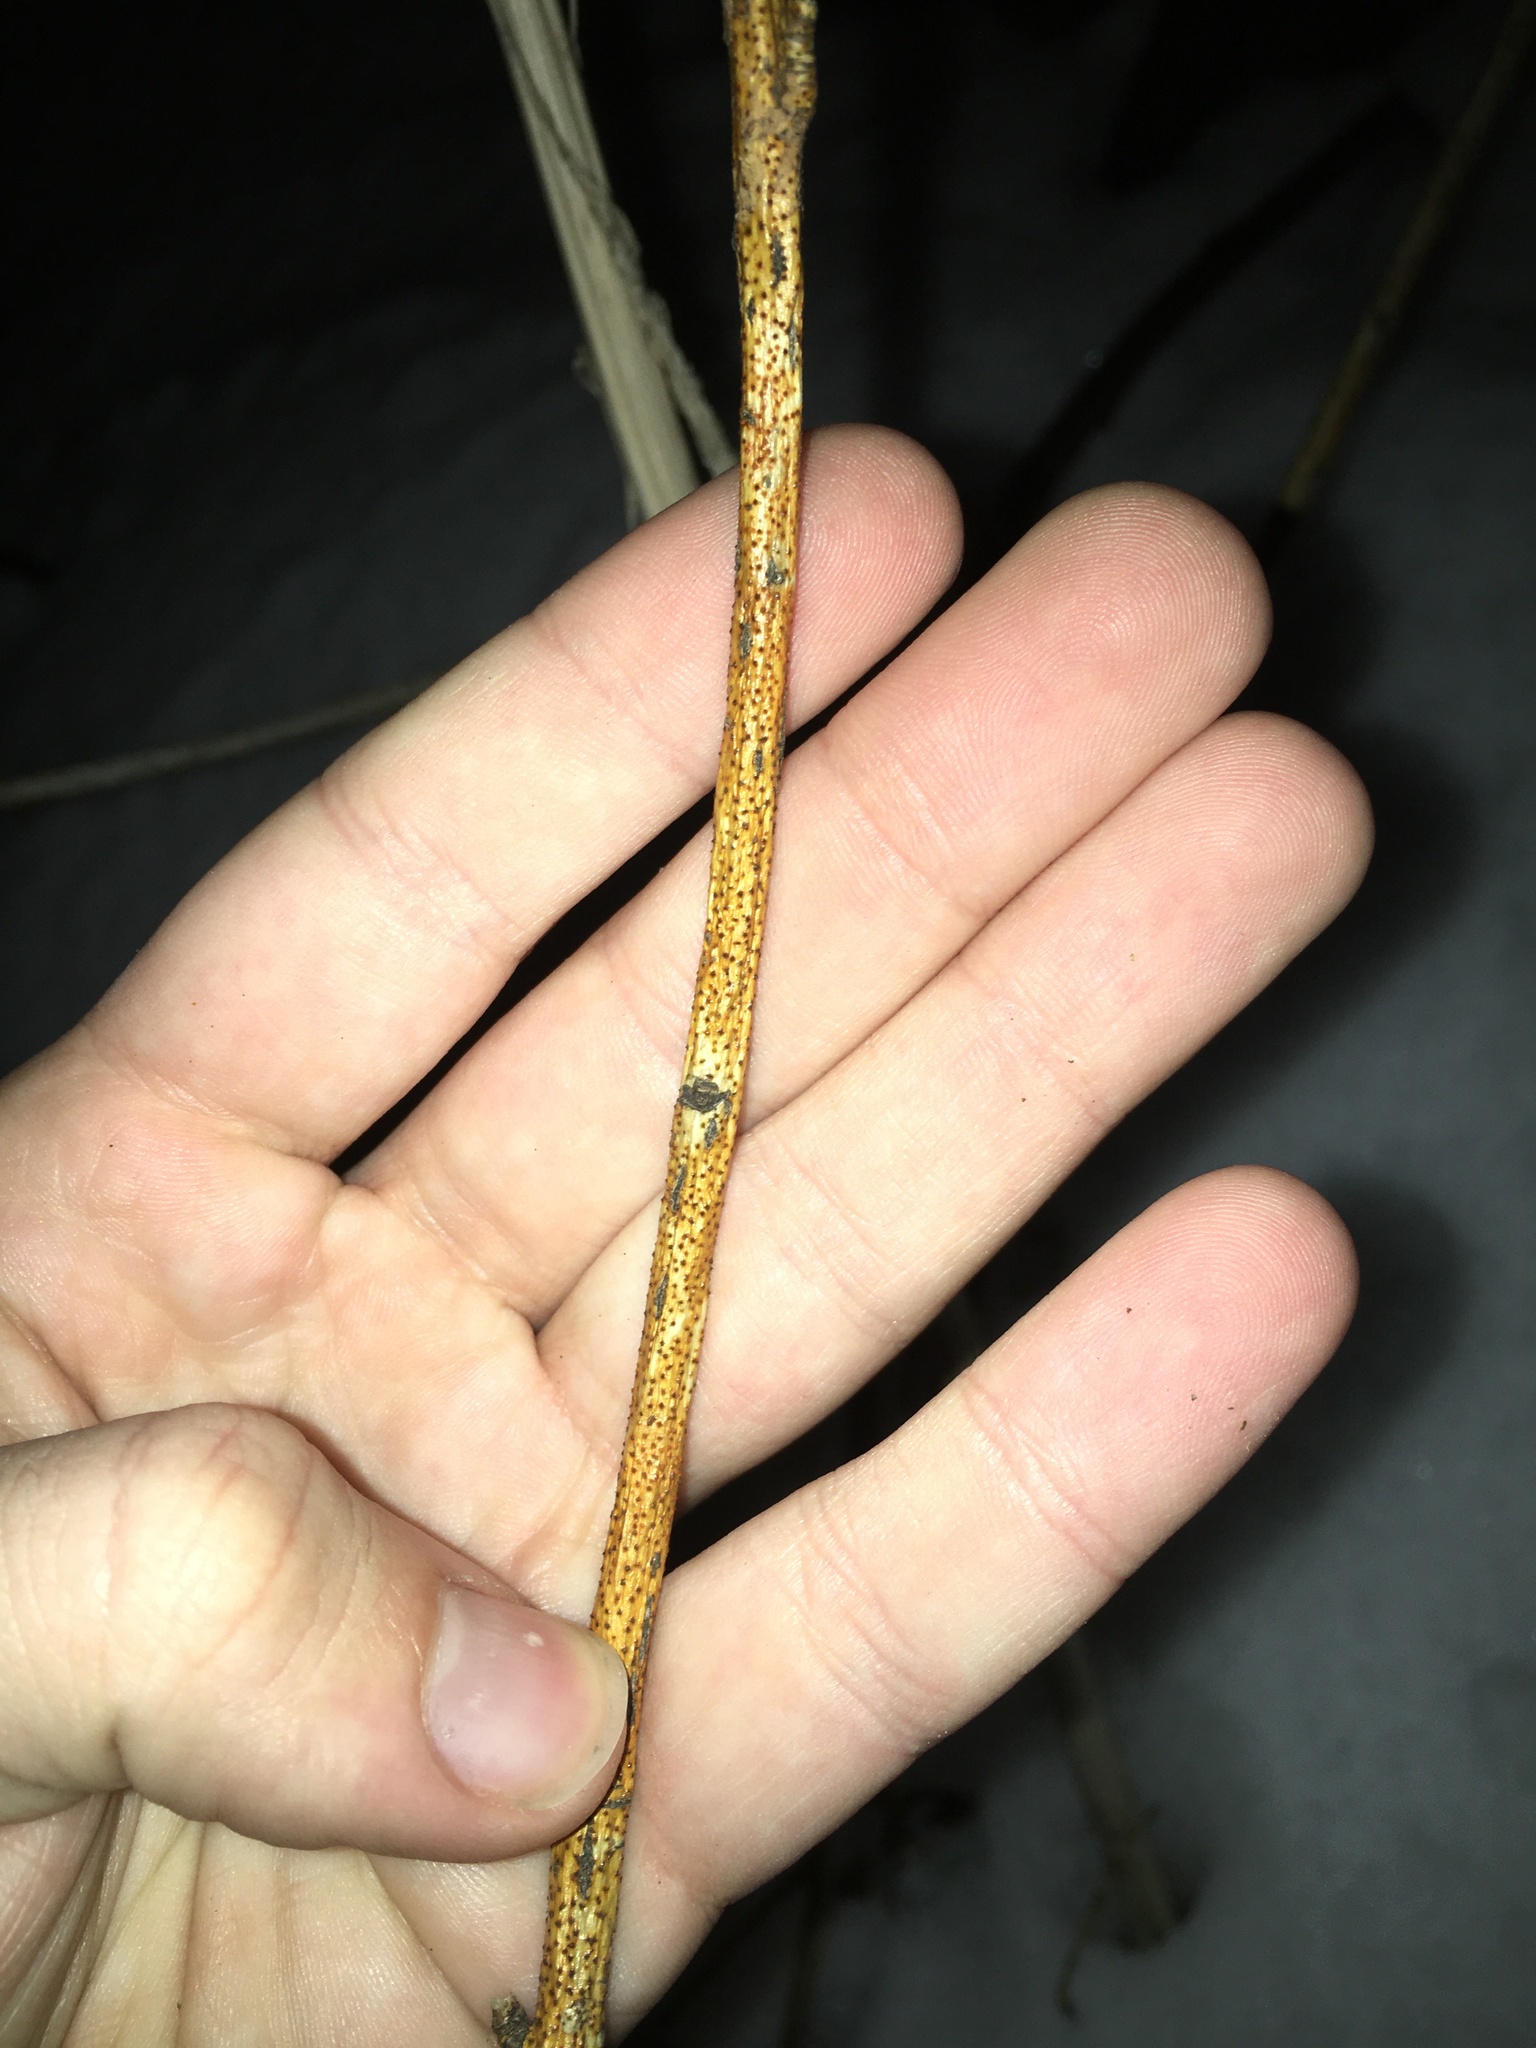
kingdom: Fungi
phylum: Ascomycota
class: Sordariomycetes
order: Diaporthales
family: Cryphonectriaceae
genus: Aurantioporthe
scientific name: Aurantioporthe corni
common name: Dogwood golden canker
